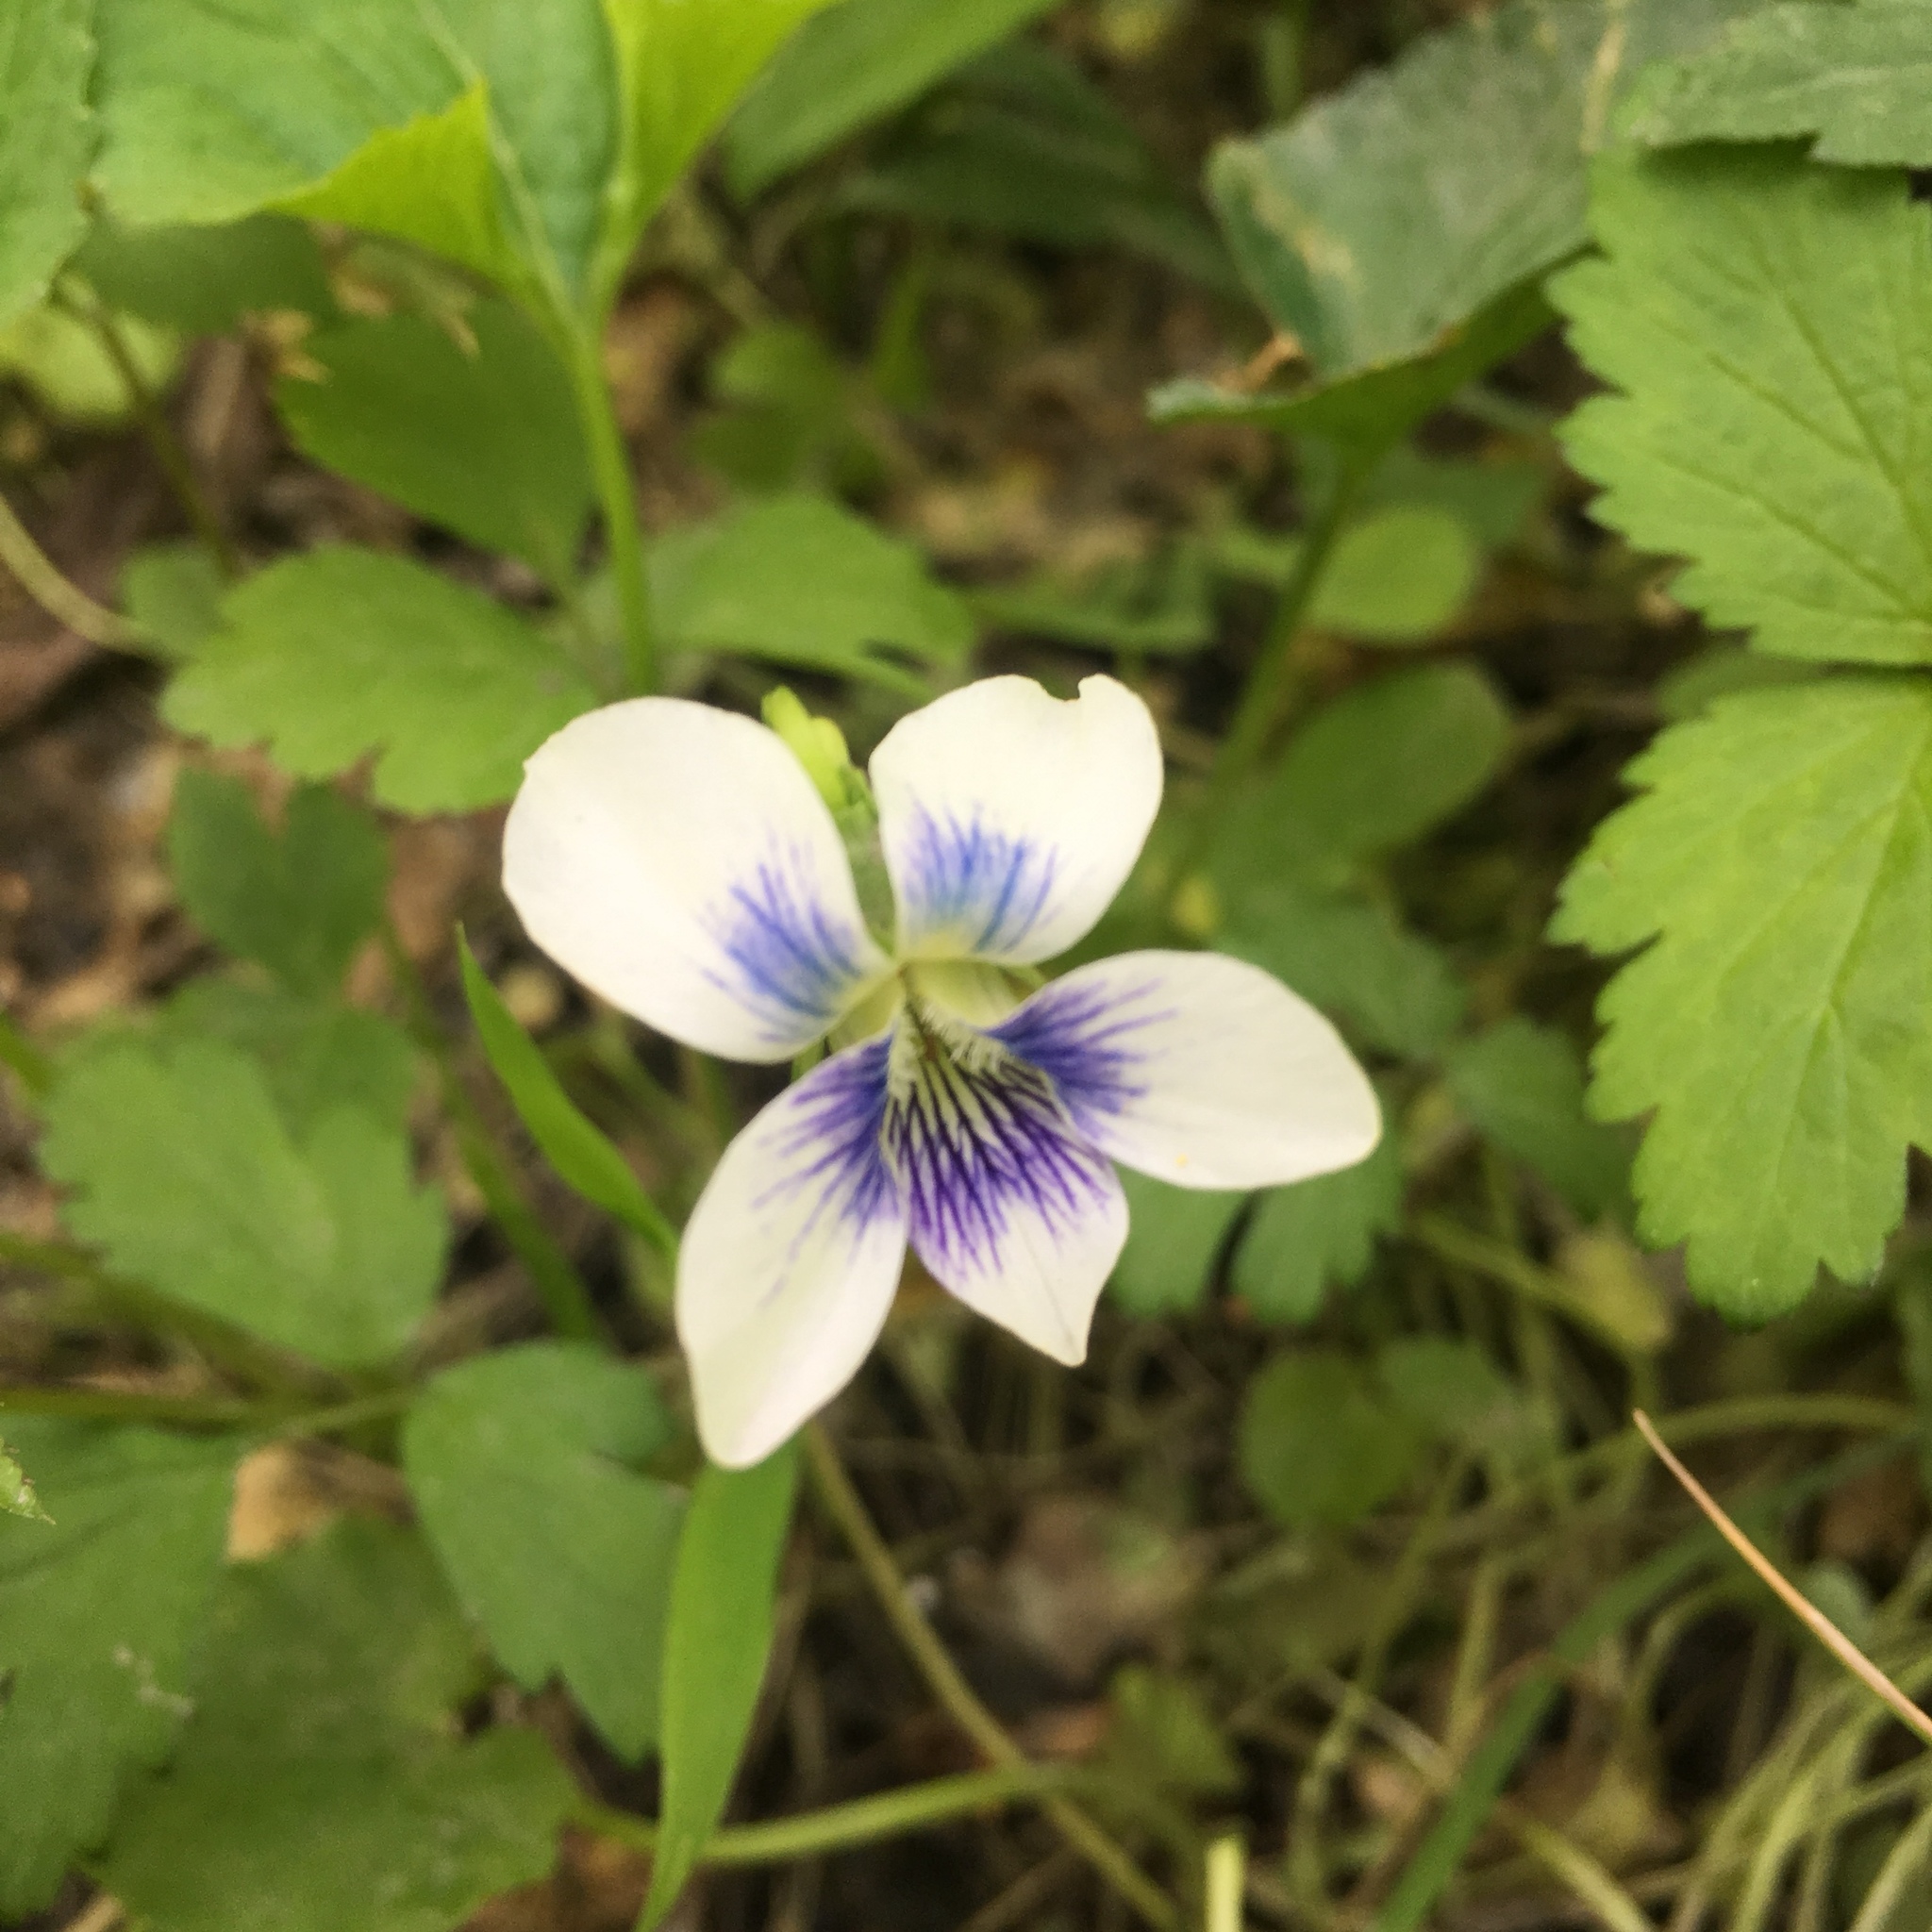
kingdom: Plantae
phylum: Tracheophyta
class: Magnoliopsida
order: Malpighiales
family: Violaceae
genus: Viola
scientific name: Viola sororia
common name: Dooryard violet
